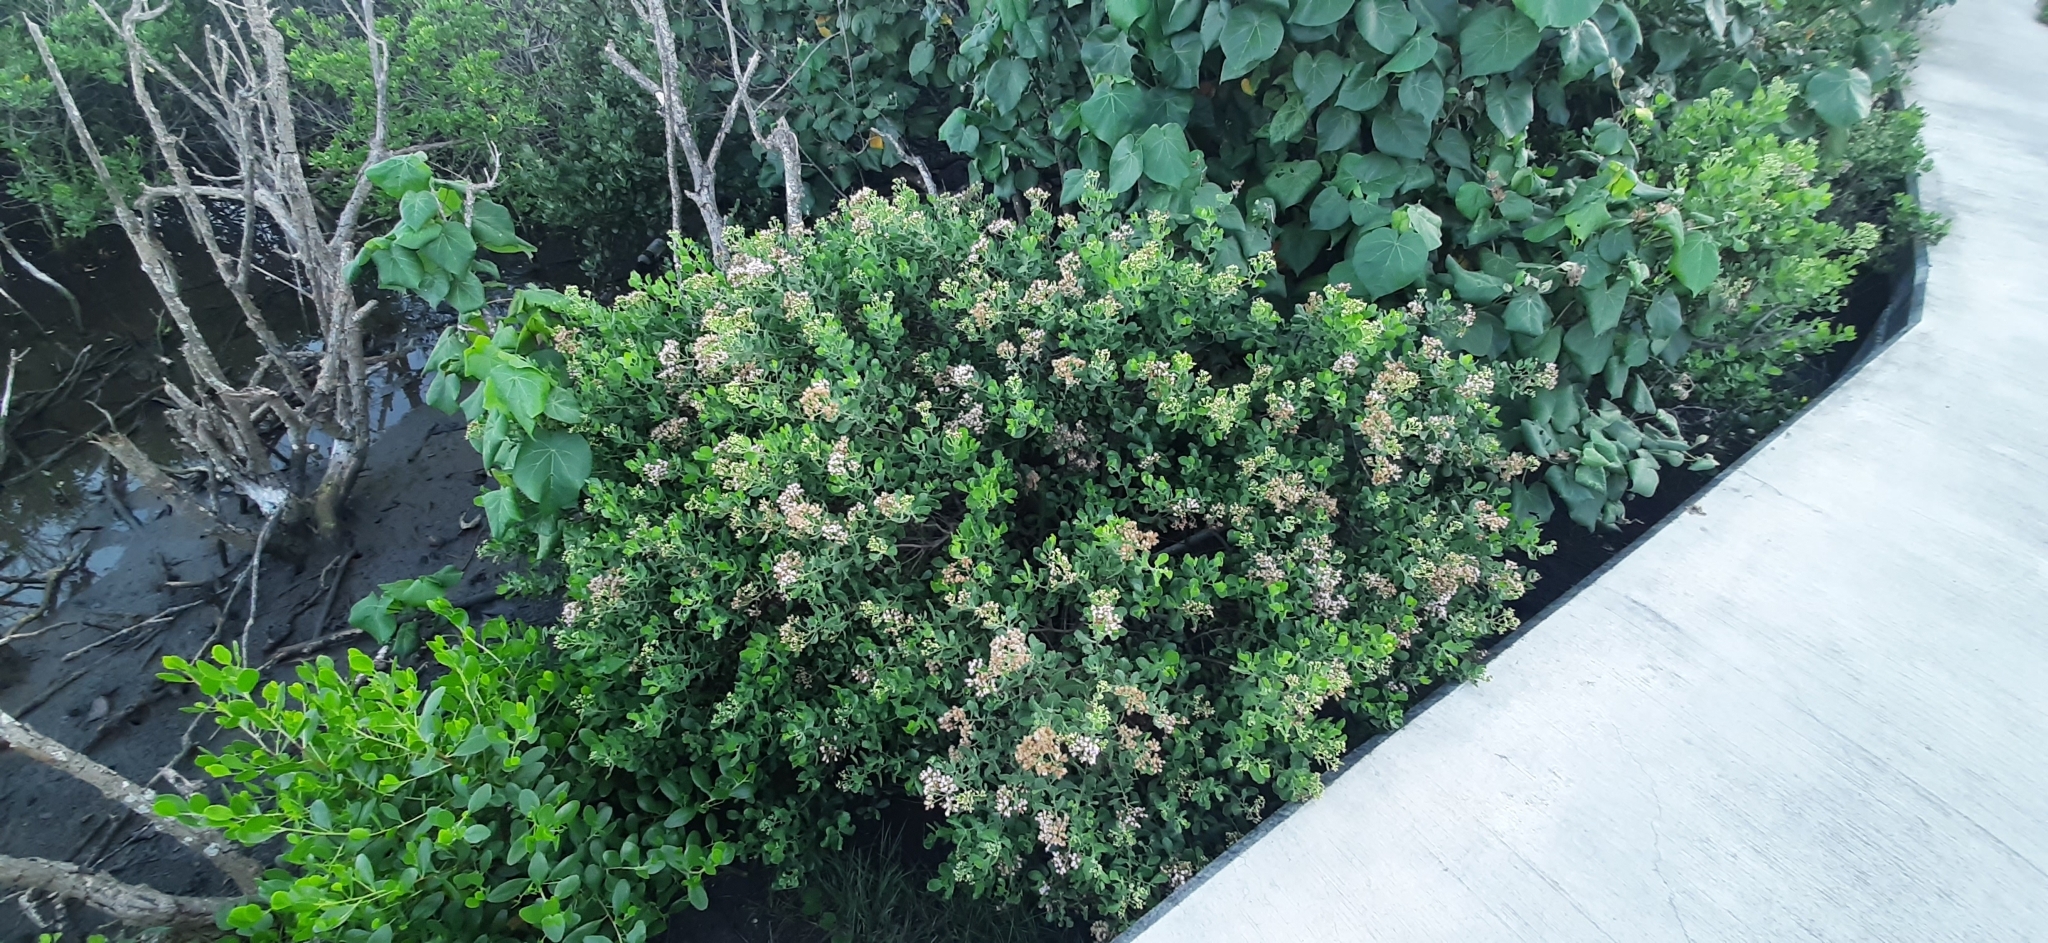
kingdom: Plantae
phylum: Tracheophyta
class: Magnoliopsida
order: Asterales
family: Asteraceae
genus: Pluchea
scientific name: Pluchea indica
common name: Indian fleabane
